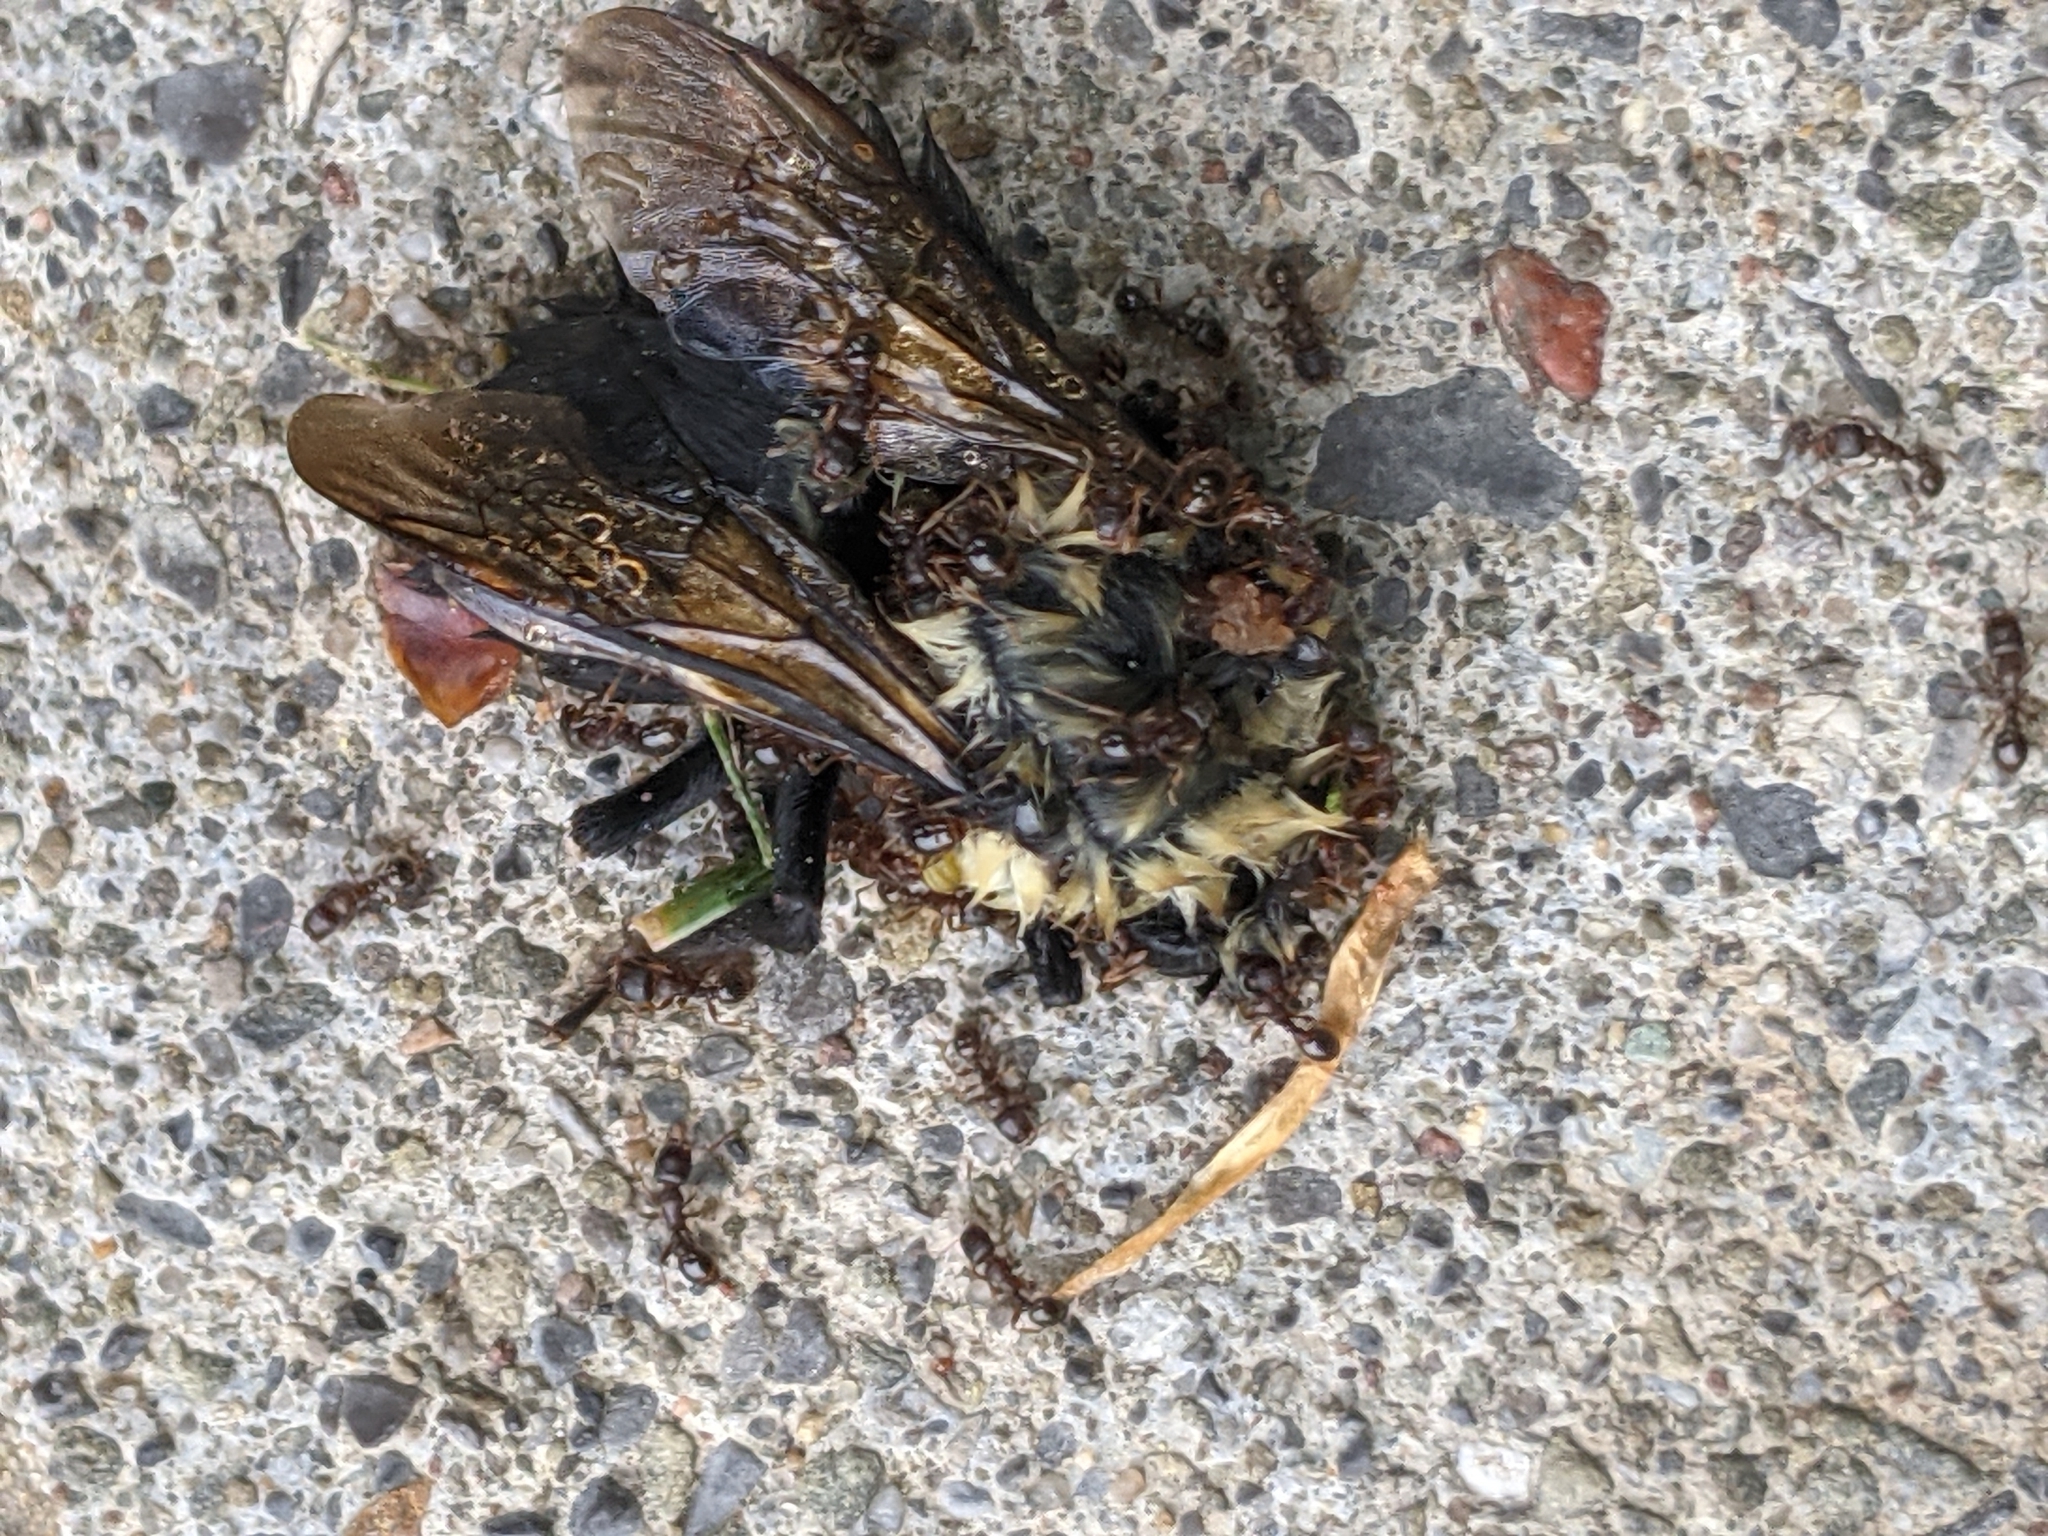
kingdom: Animalia
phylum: Arthropoda
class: Insecta
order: Hymenoptera
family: Formicidae
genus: Tetramorium
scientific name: Tetramorium immigrans
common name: Pavement ant
